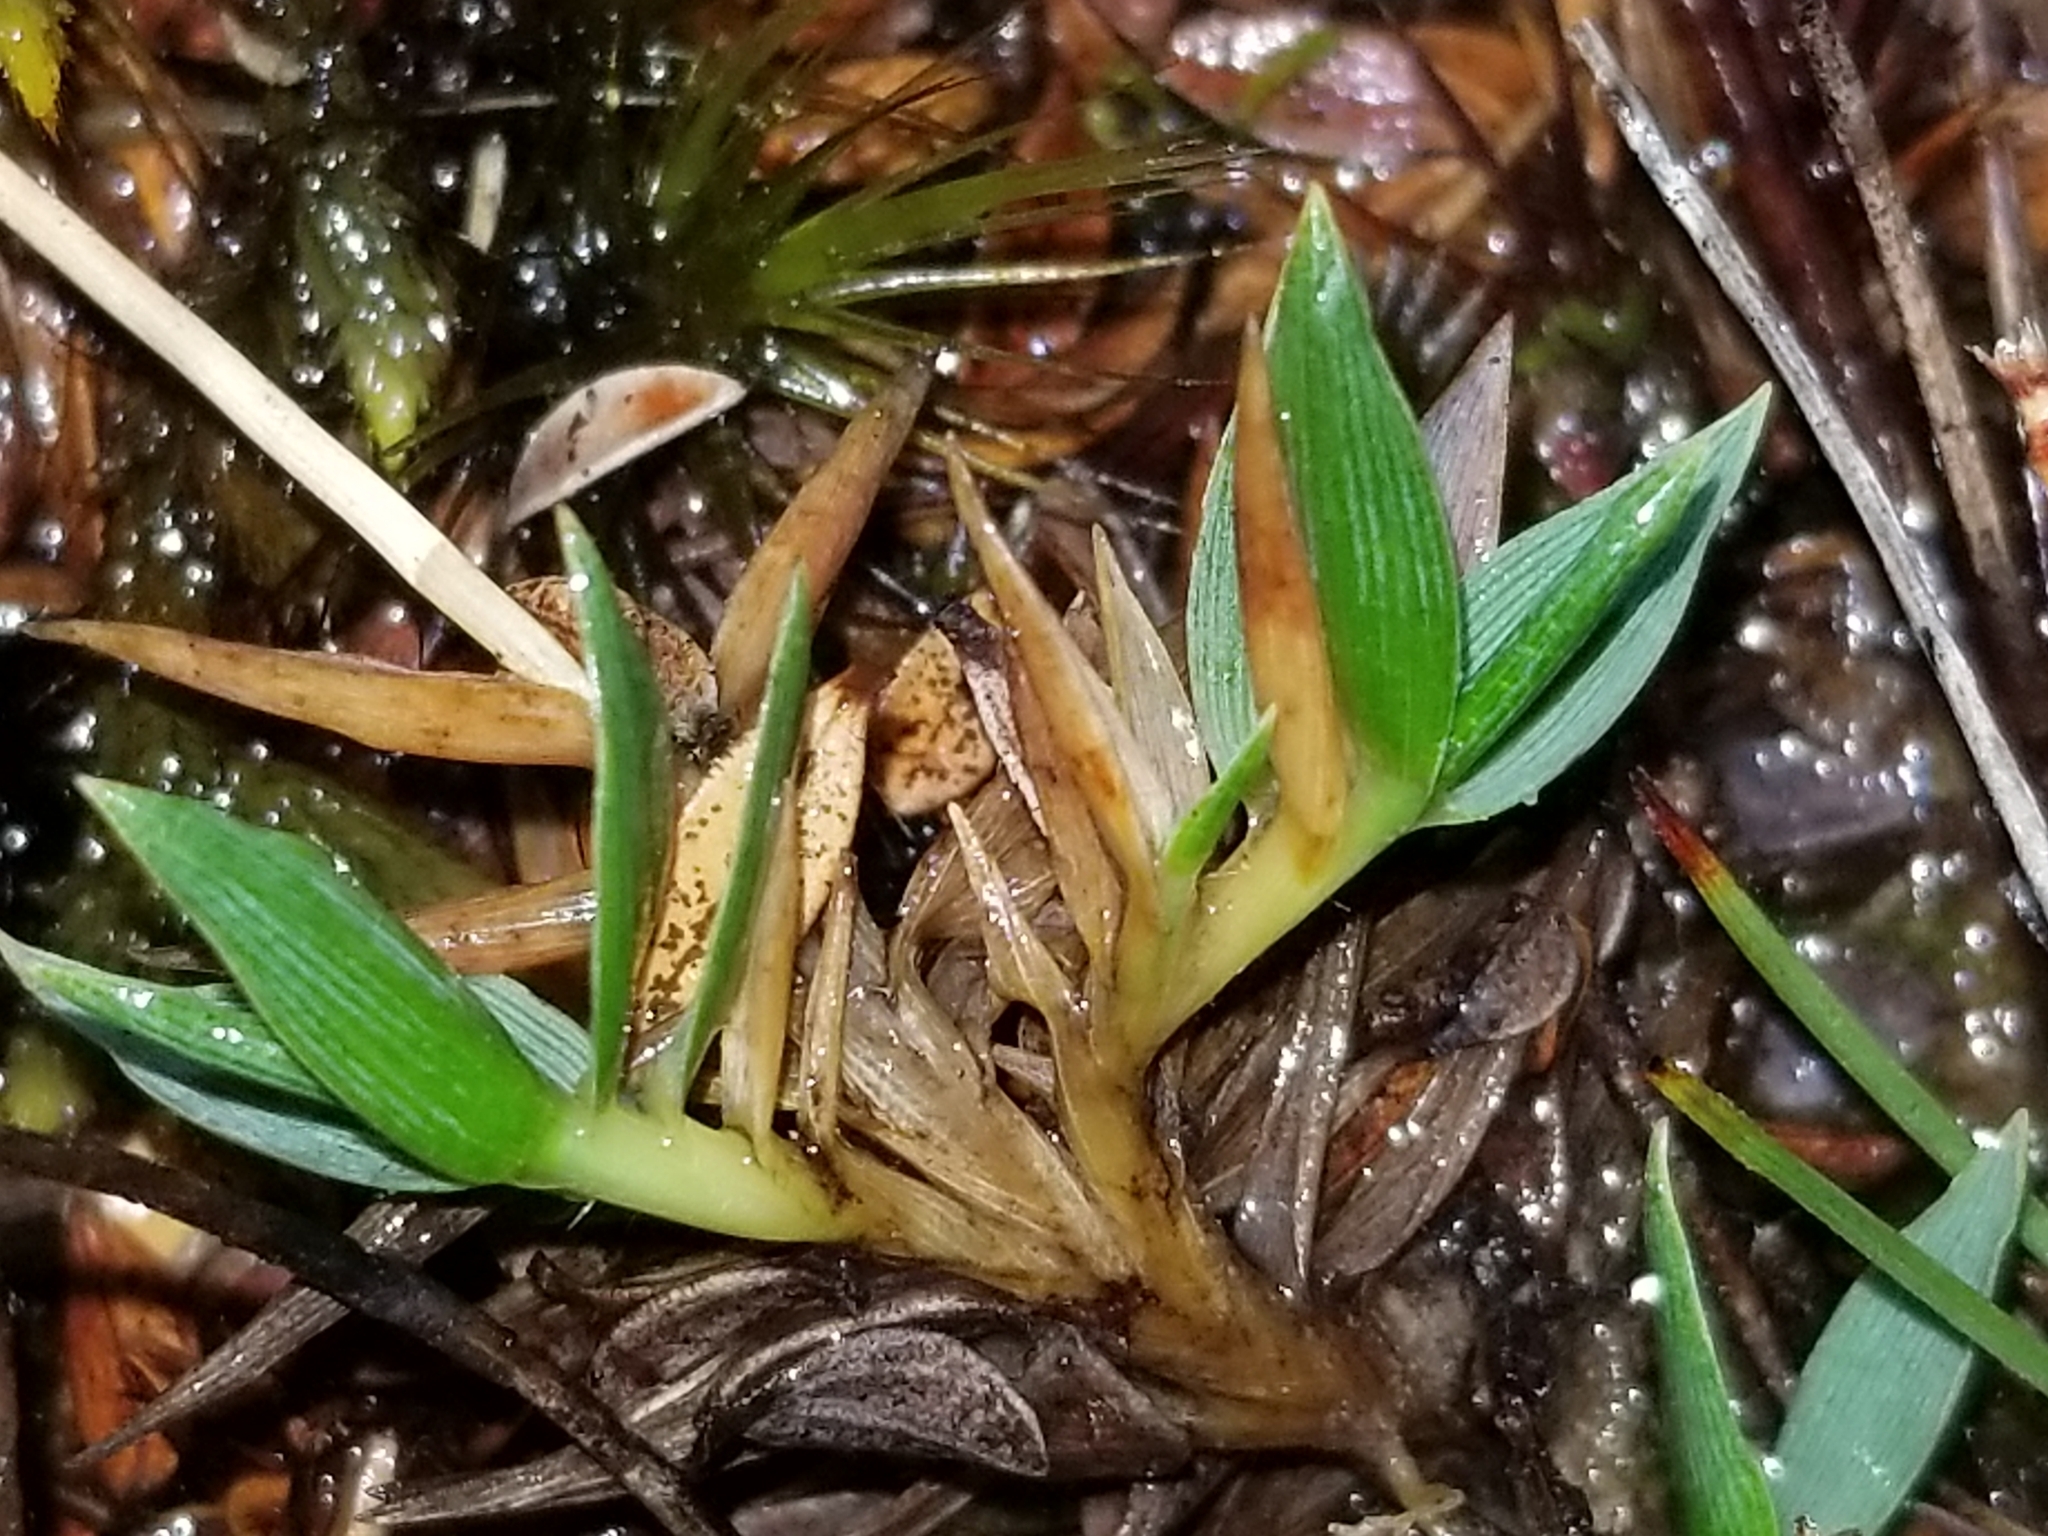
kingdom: Plantae
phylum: Tracheophyta
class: Liliopsida
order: Poales
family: Poaceae
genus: Zotovia
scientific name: Zotovia thomsonii
